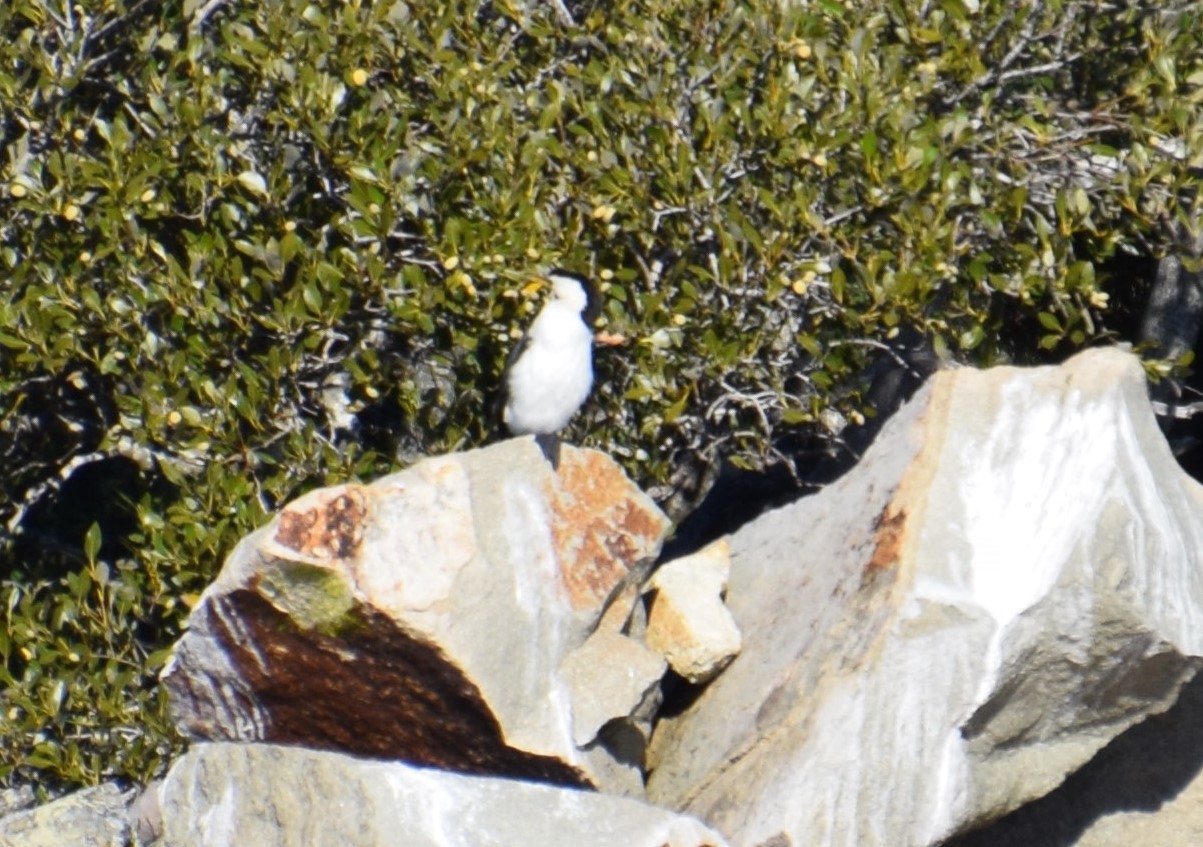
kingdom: Animalia
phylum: Chordata
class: Aves
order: Suliformes
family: Phalacrocoracidae
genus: Microcarbo
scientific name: Microcarbo melanoleucos
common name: Little pied cormorant
